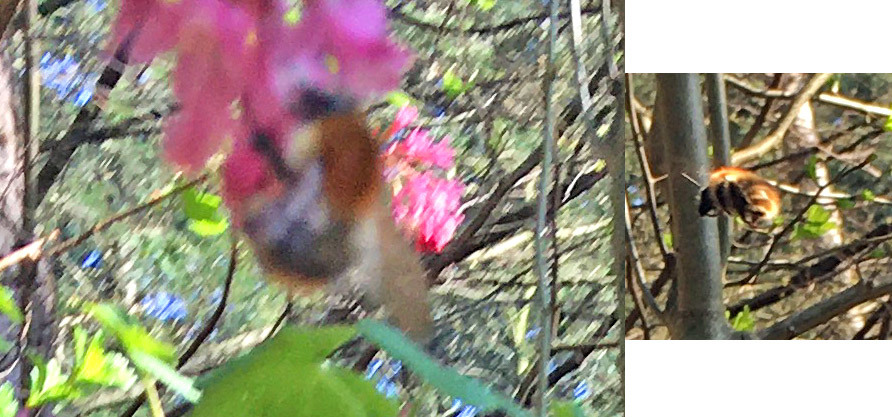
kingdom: Animalia
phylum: Arthropoda
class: Insecta
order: Hymenoptera
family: Apidae
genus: Bombus
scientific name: Bombus pascuorum
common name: Common carder bee
